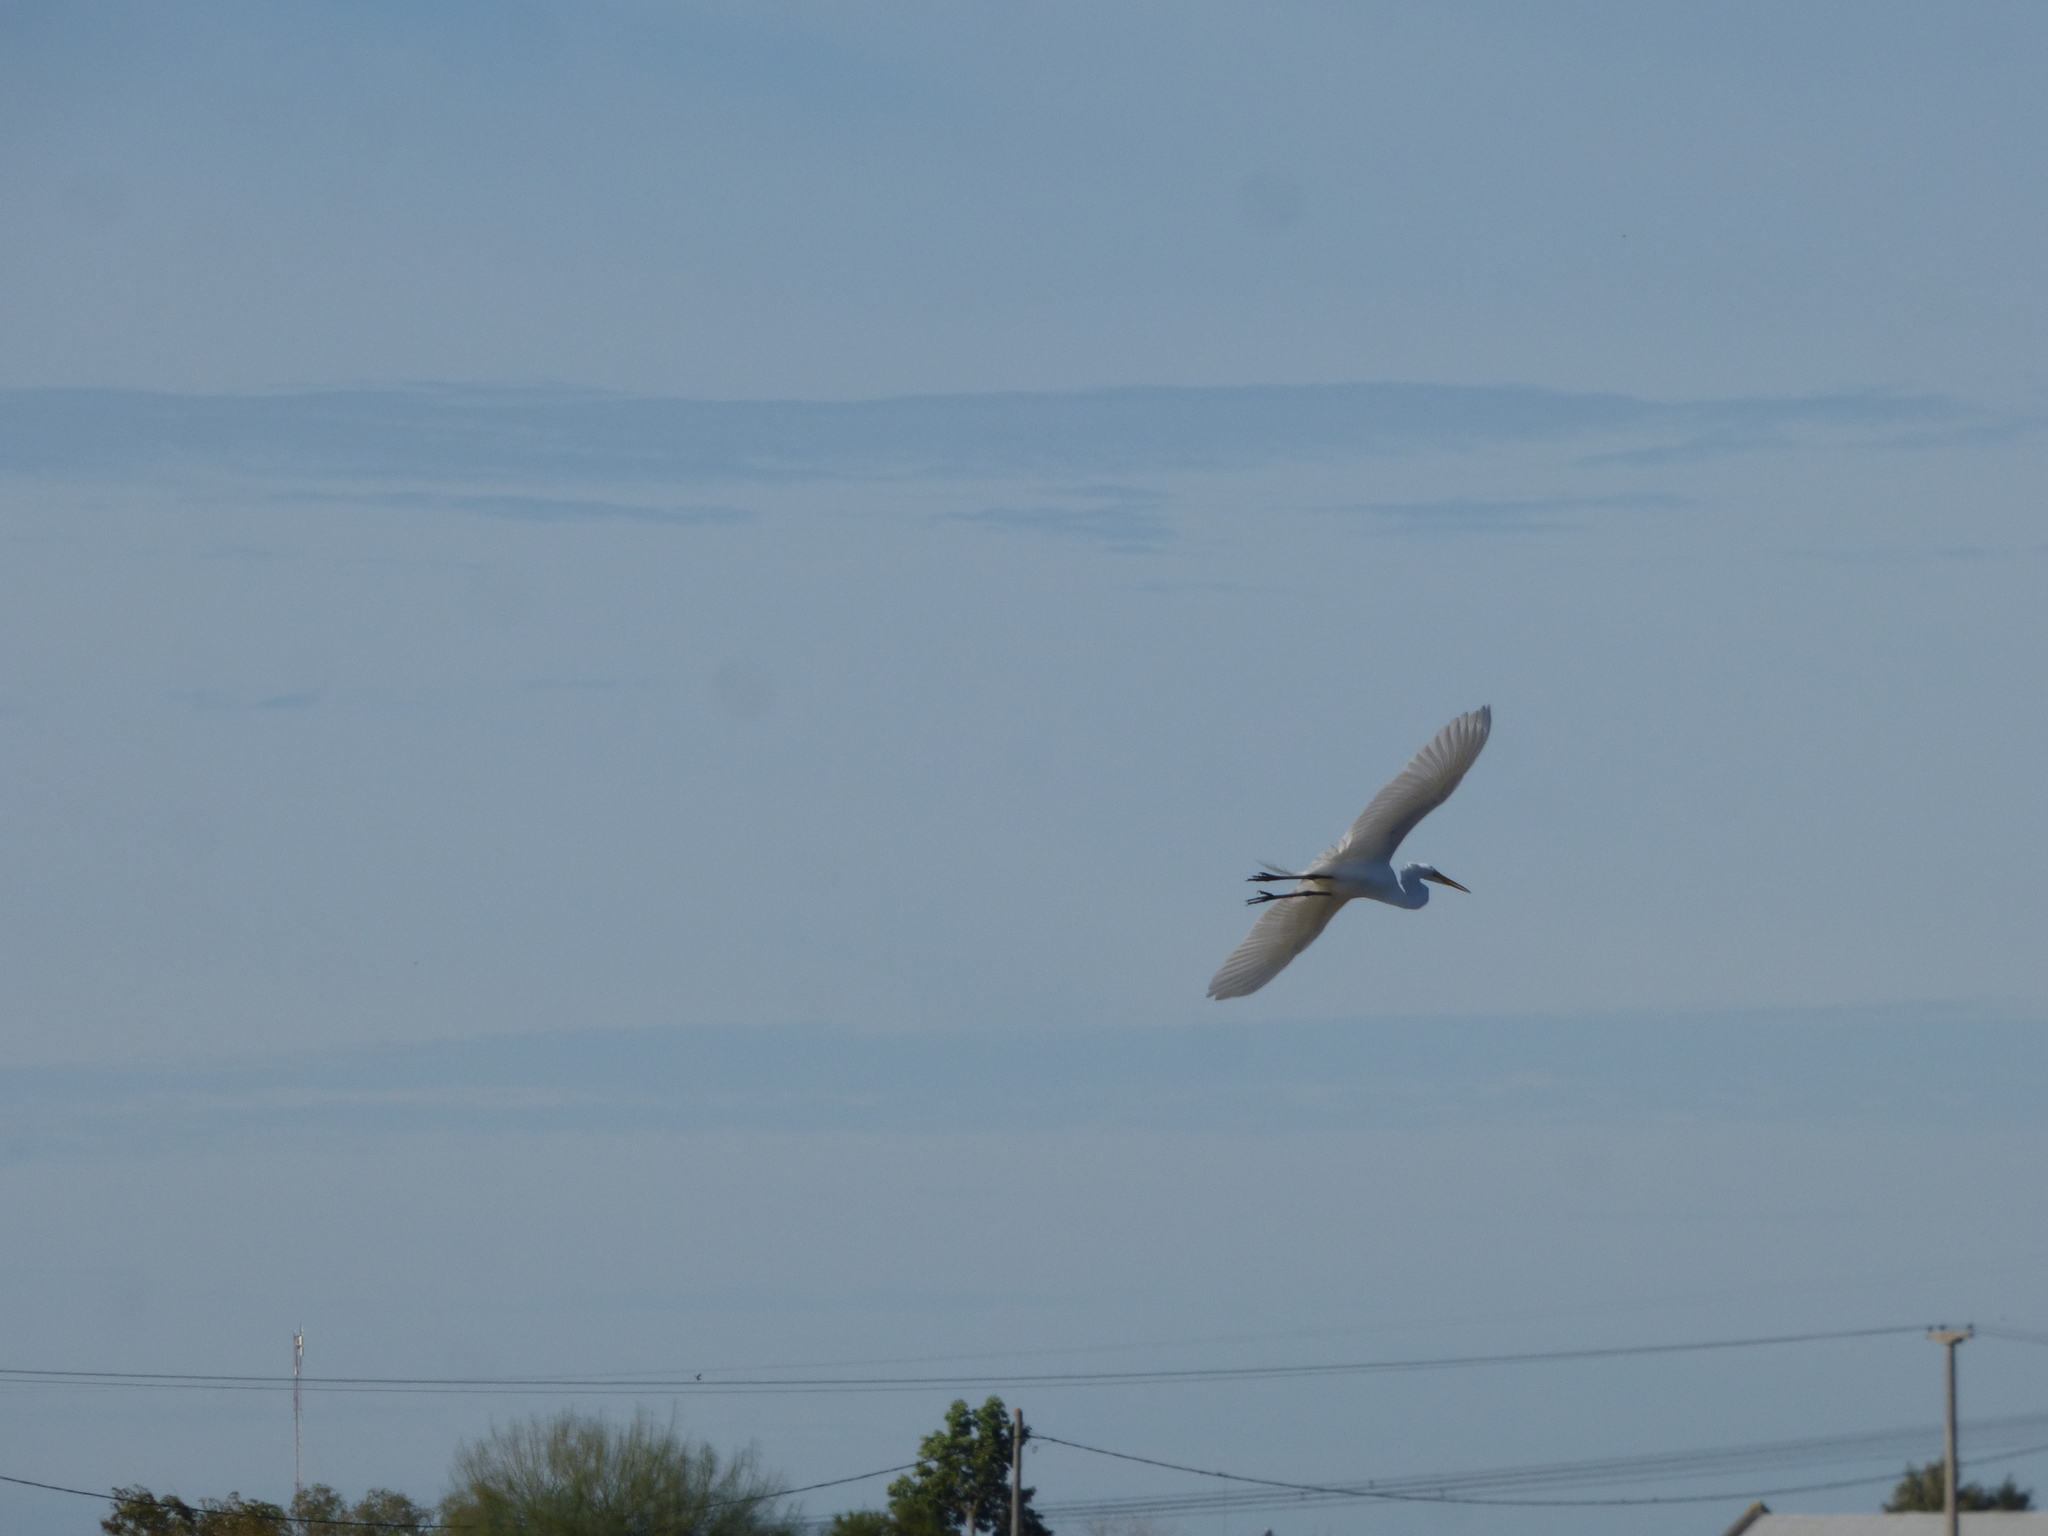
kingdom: Animalia
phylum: Chordata
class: Aves
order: Pelecaniformes
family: Ardeidae
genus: Ardea
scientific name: Ardea alba
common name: Great egret
